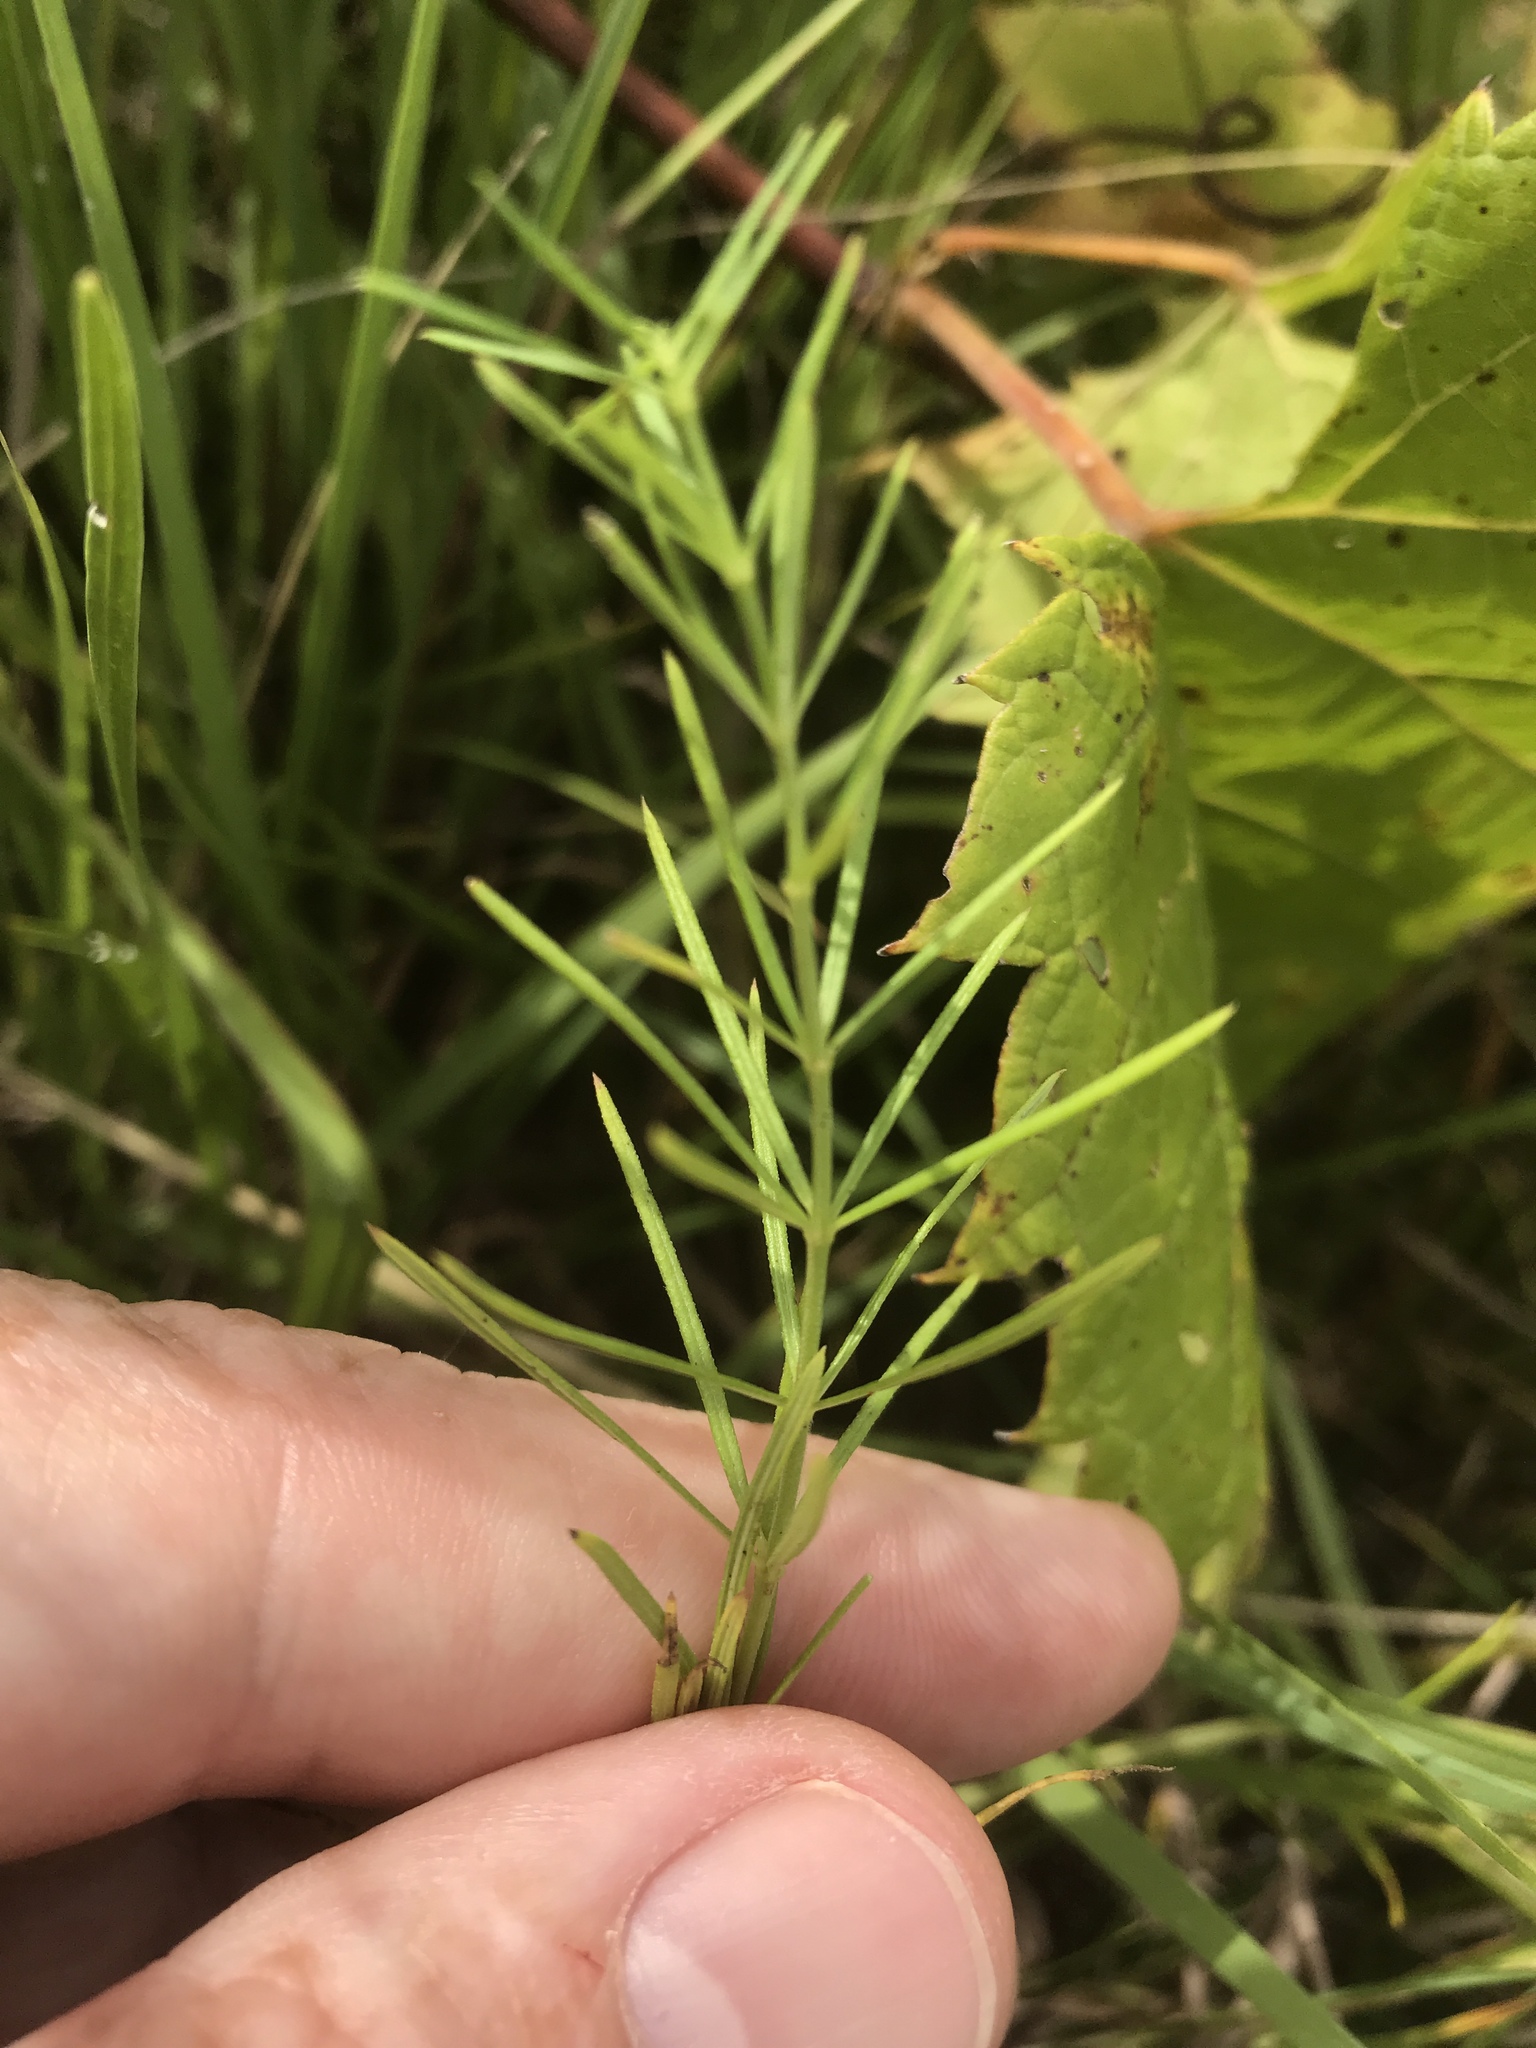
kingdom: Plantae
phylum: Tracheophyta
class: Magnoliopsida
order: Gentianales
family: Apocynaceae
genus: Asclepias
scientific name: Asclepias verticillata
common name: Eastern whorled milkweed
